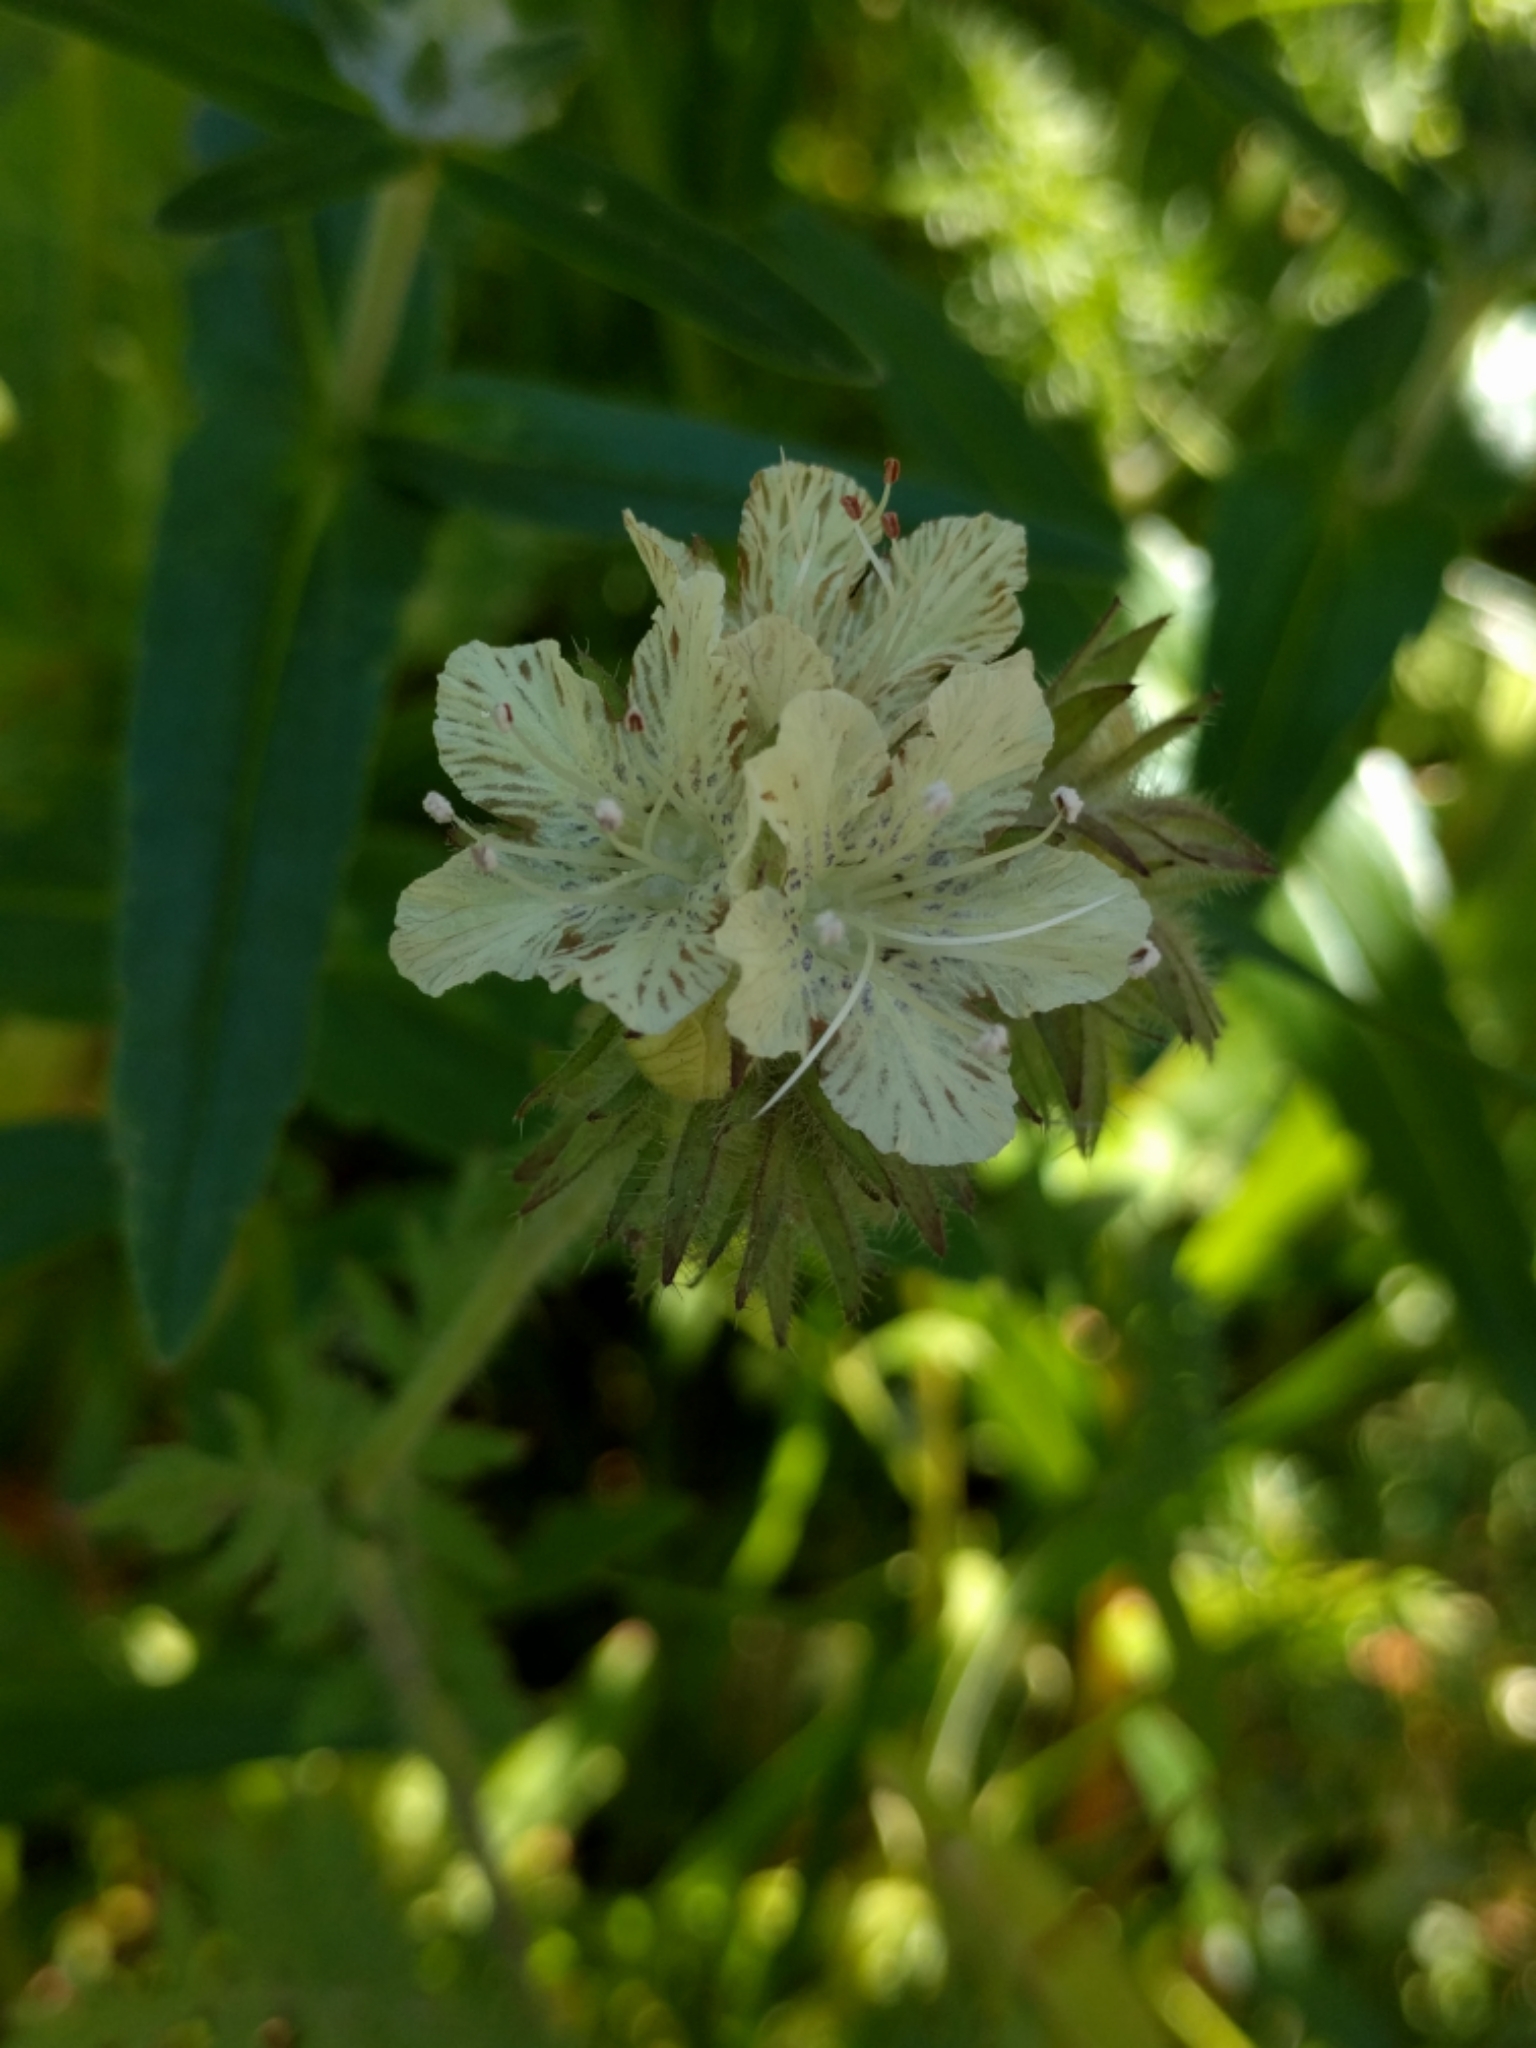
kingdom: Plantae
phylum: Tracheophyta
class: Magnoliopsida
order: Boraginales
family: Hydrophyllaceae
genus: Phacelia
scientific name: Phacelia distans
